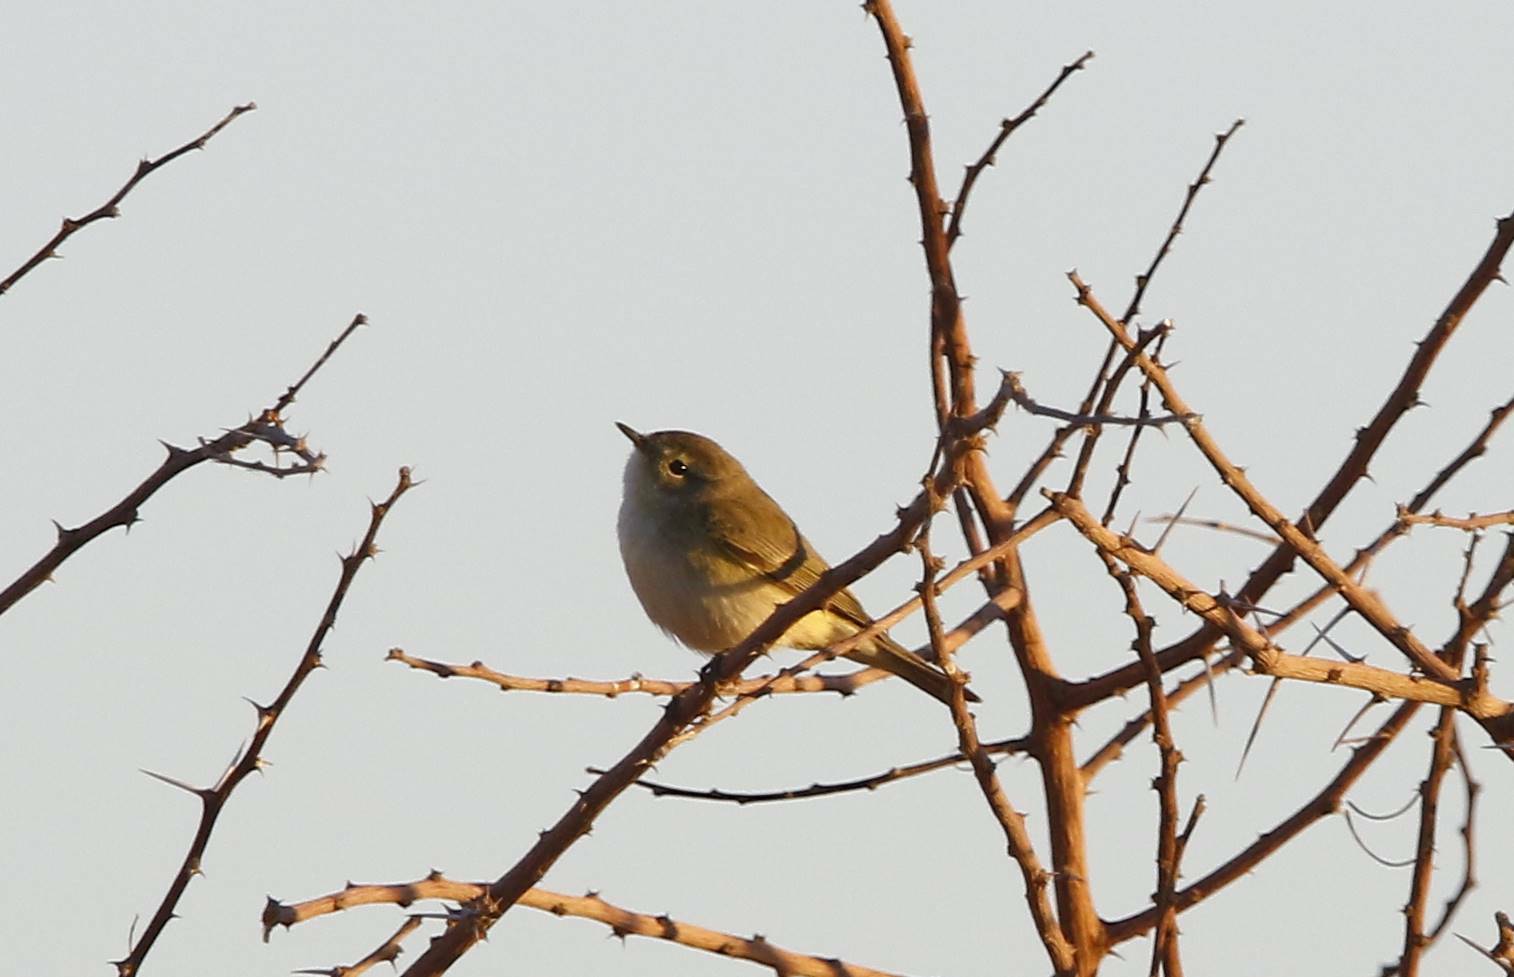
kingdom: Animalia
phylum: Chordata
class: Aves
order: Passeriformes
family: Phylloscopidae
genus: Phylloscopus
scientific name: Phylloscopus collybita
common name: Common chiffchaff
